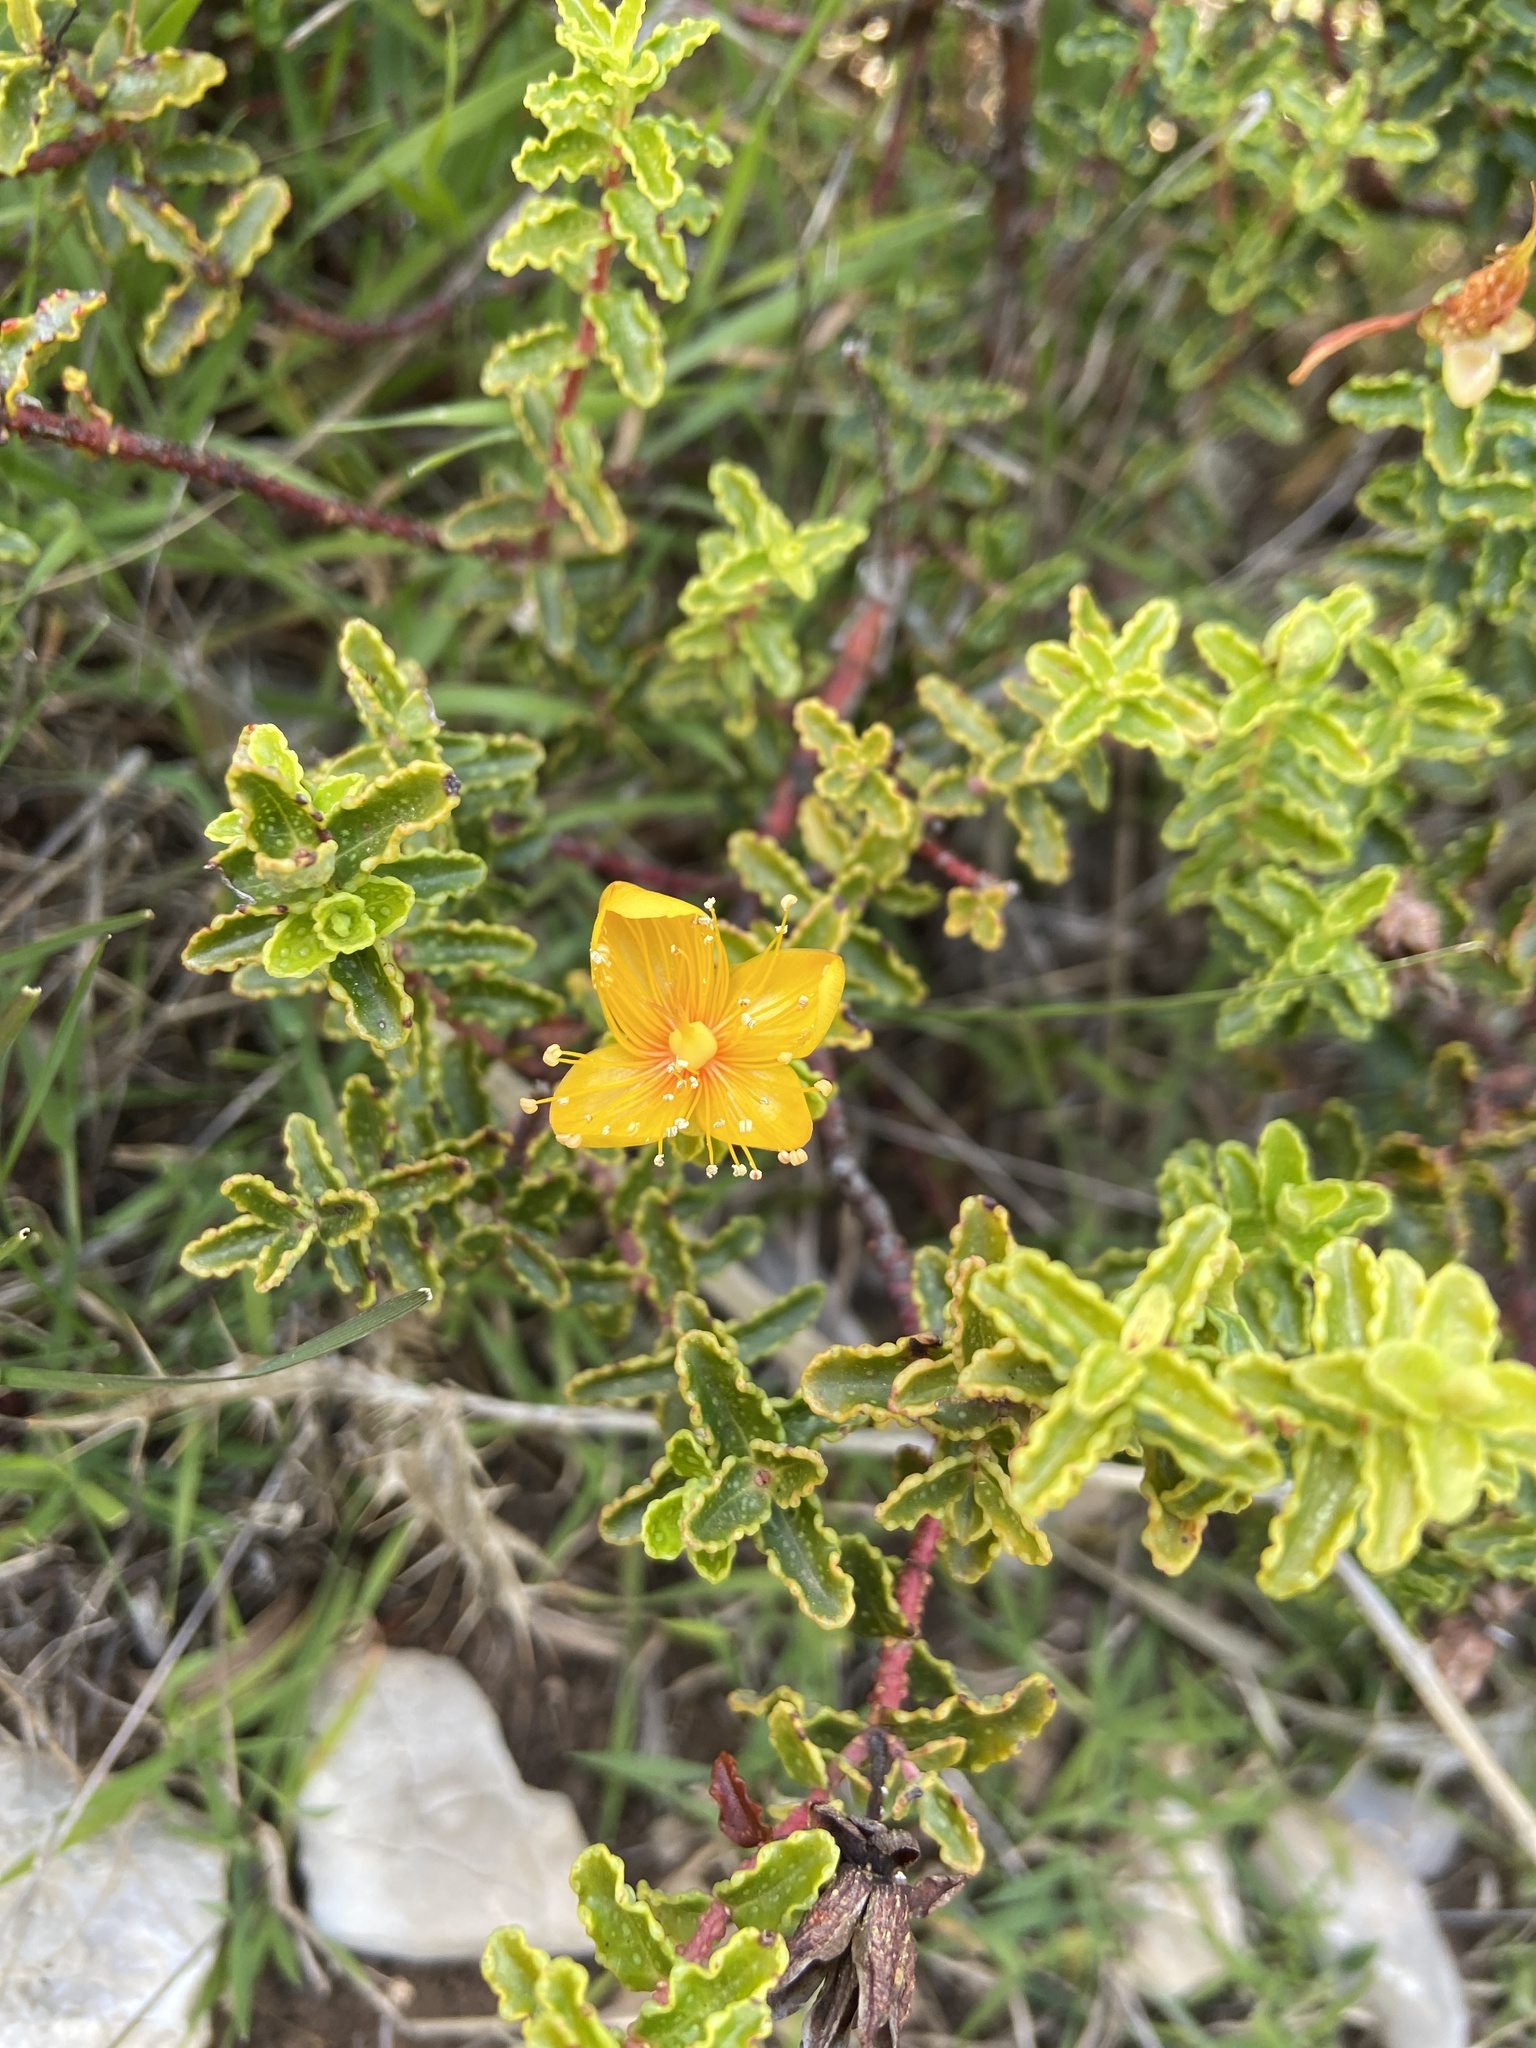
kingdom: Plantae
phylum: Tracheophyta
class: Magnoliopsida
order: Malpighiales
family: Hypericaceae
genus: Hypericum
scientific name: Hypericum balearicum
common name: Majorca st john's wort
